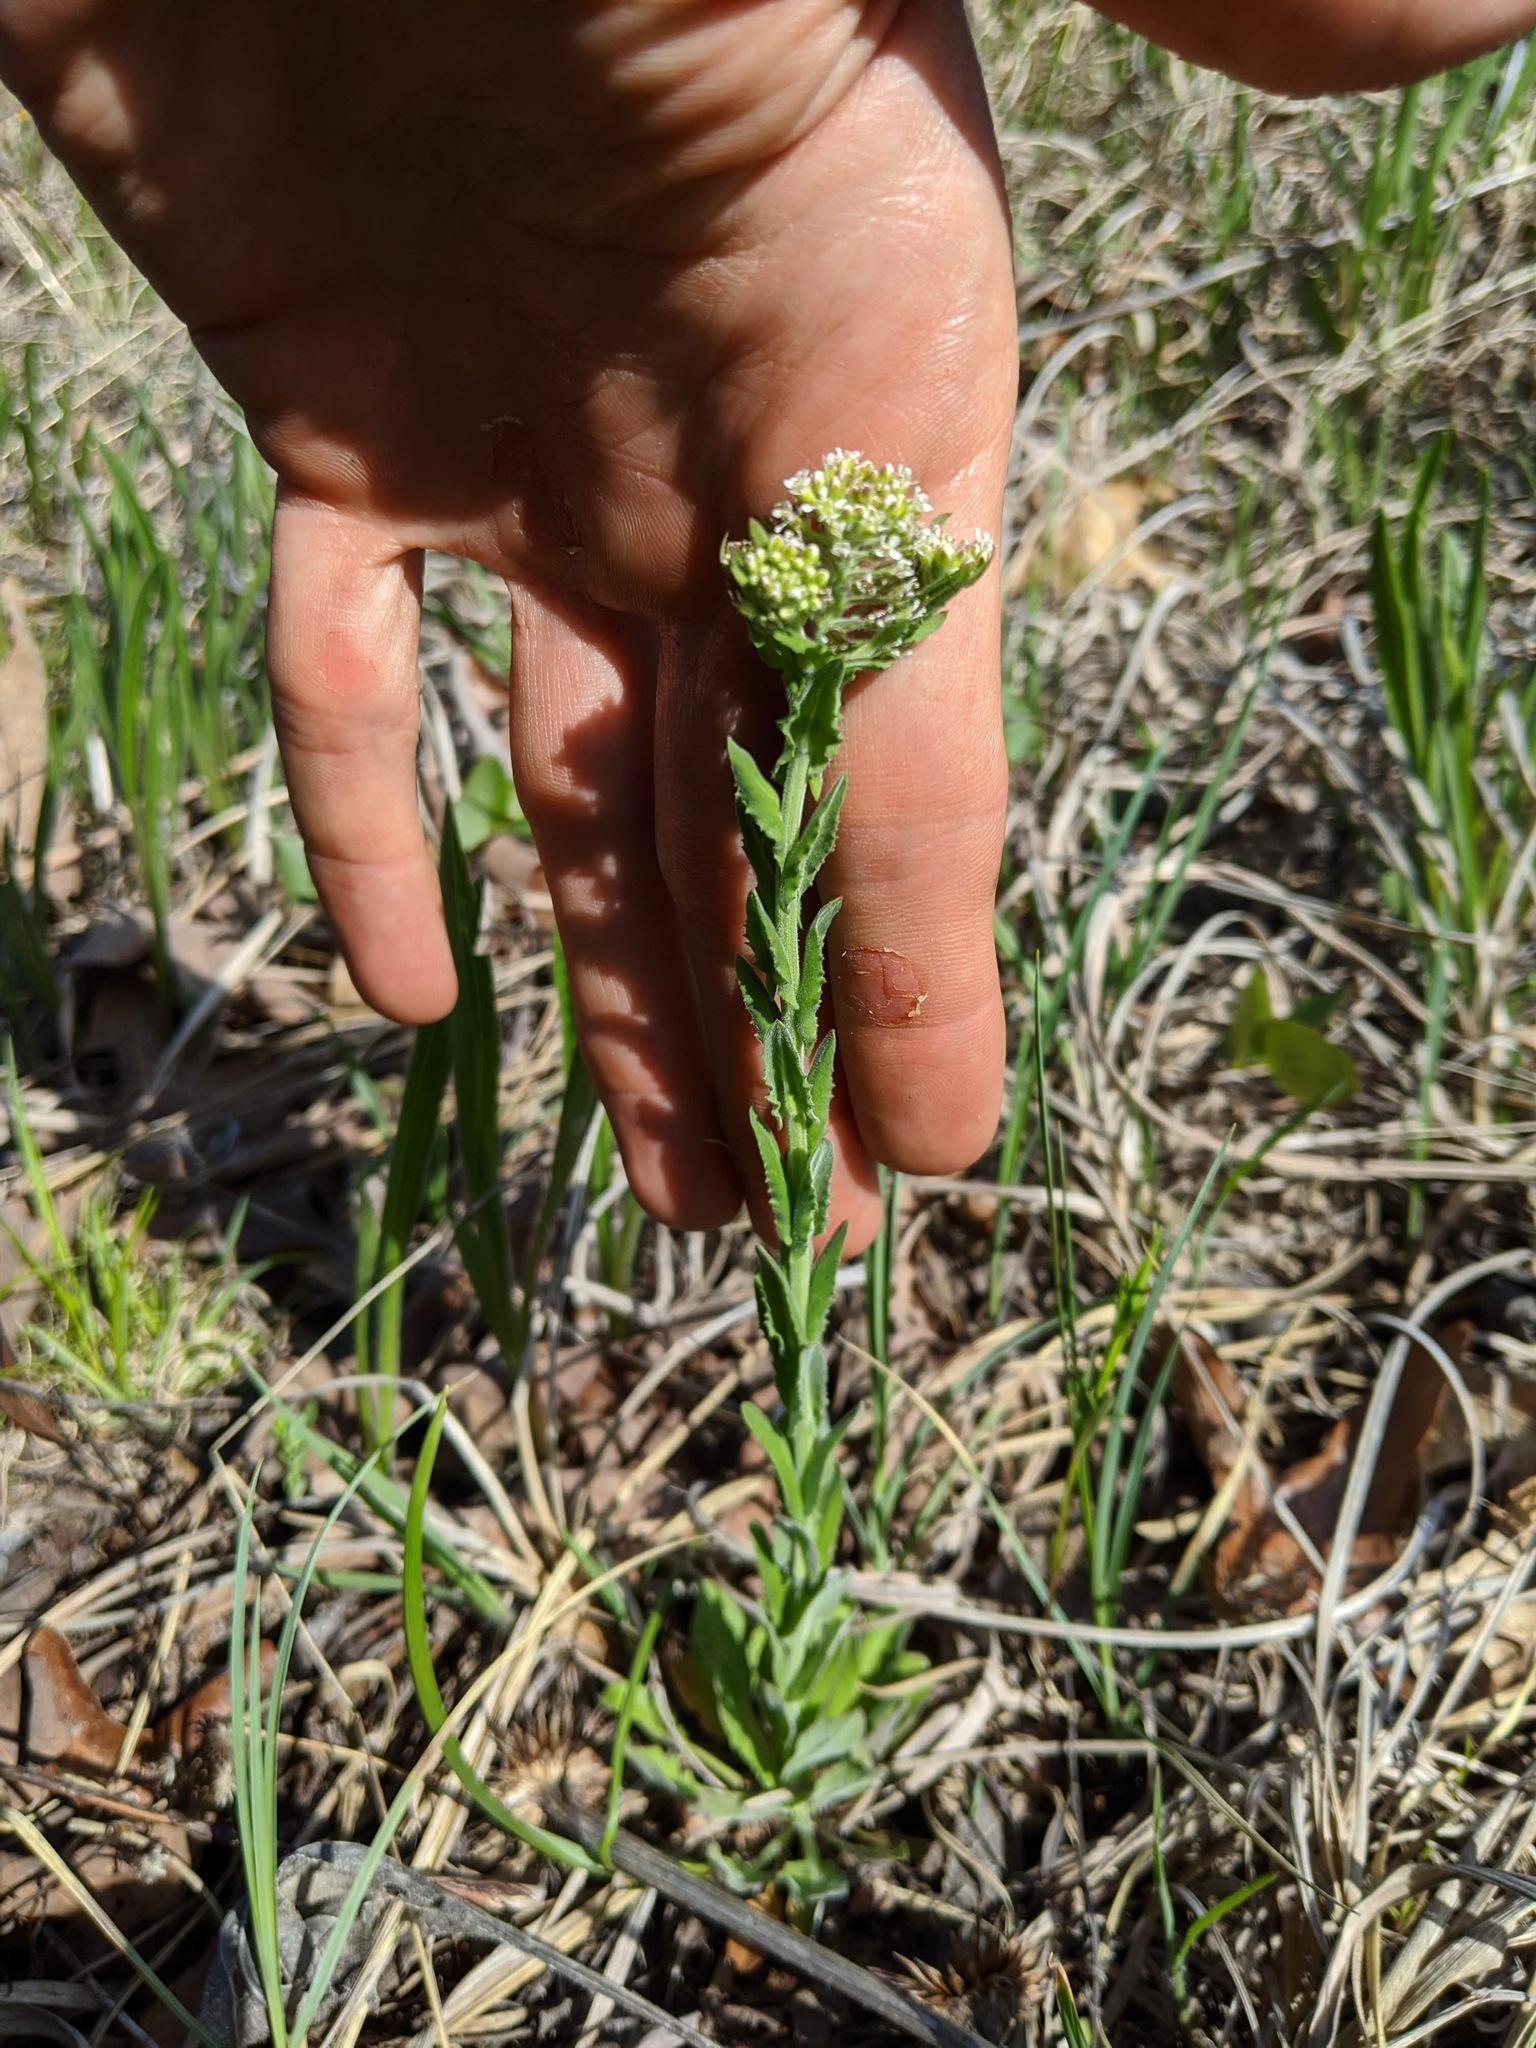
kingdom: Plantae
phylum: Tracheophyta
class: Magnoliopsida
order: Brassicales
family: Brassicaceae
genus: Lepidium
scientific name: Lepidium campestre
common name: Field pepperwort
